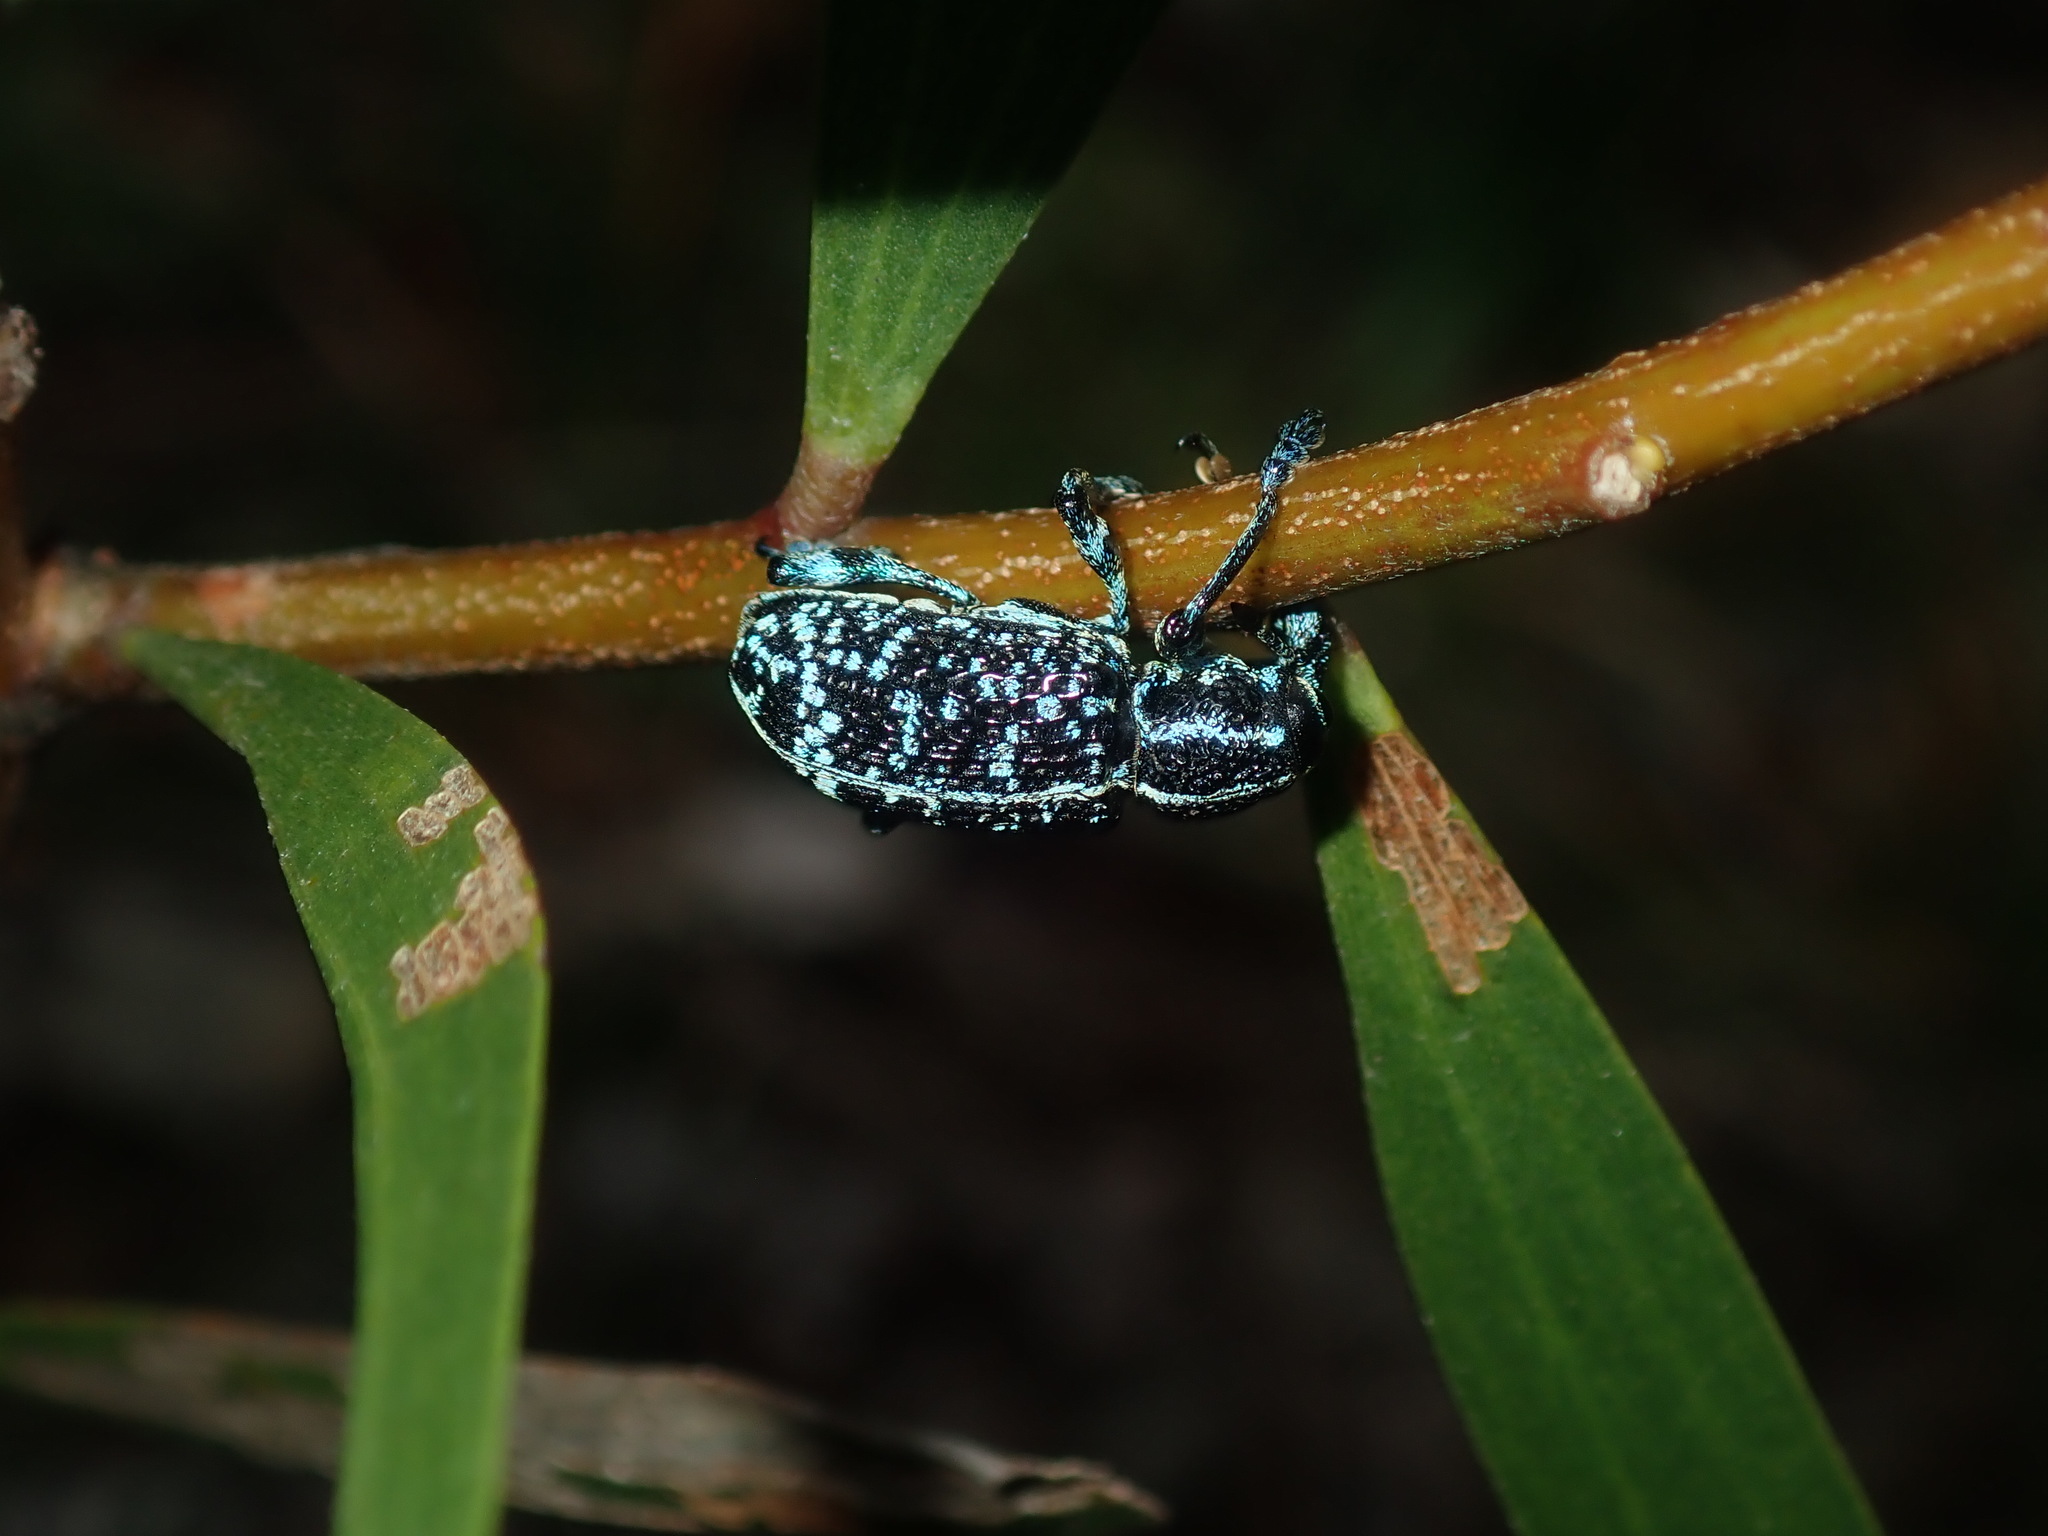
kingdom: Animalia
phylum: Arthropoda
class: Insecta
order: Coleoptera
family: Curculionidae
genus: Chrysolopus
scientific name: Chrysolopus spectabilis
